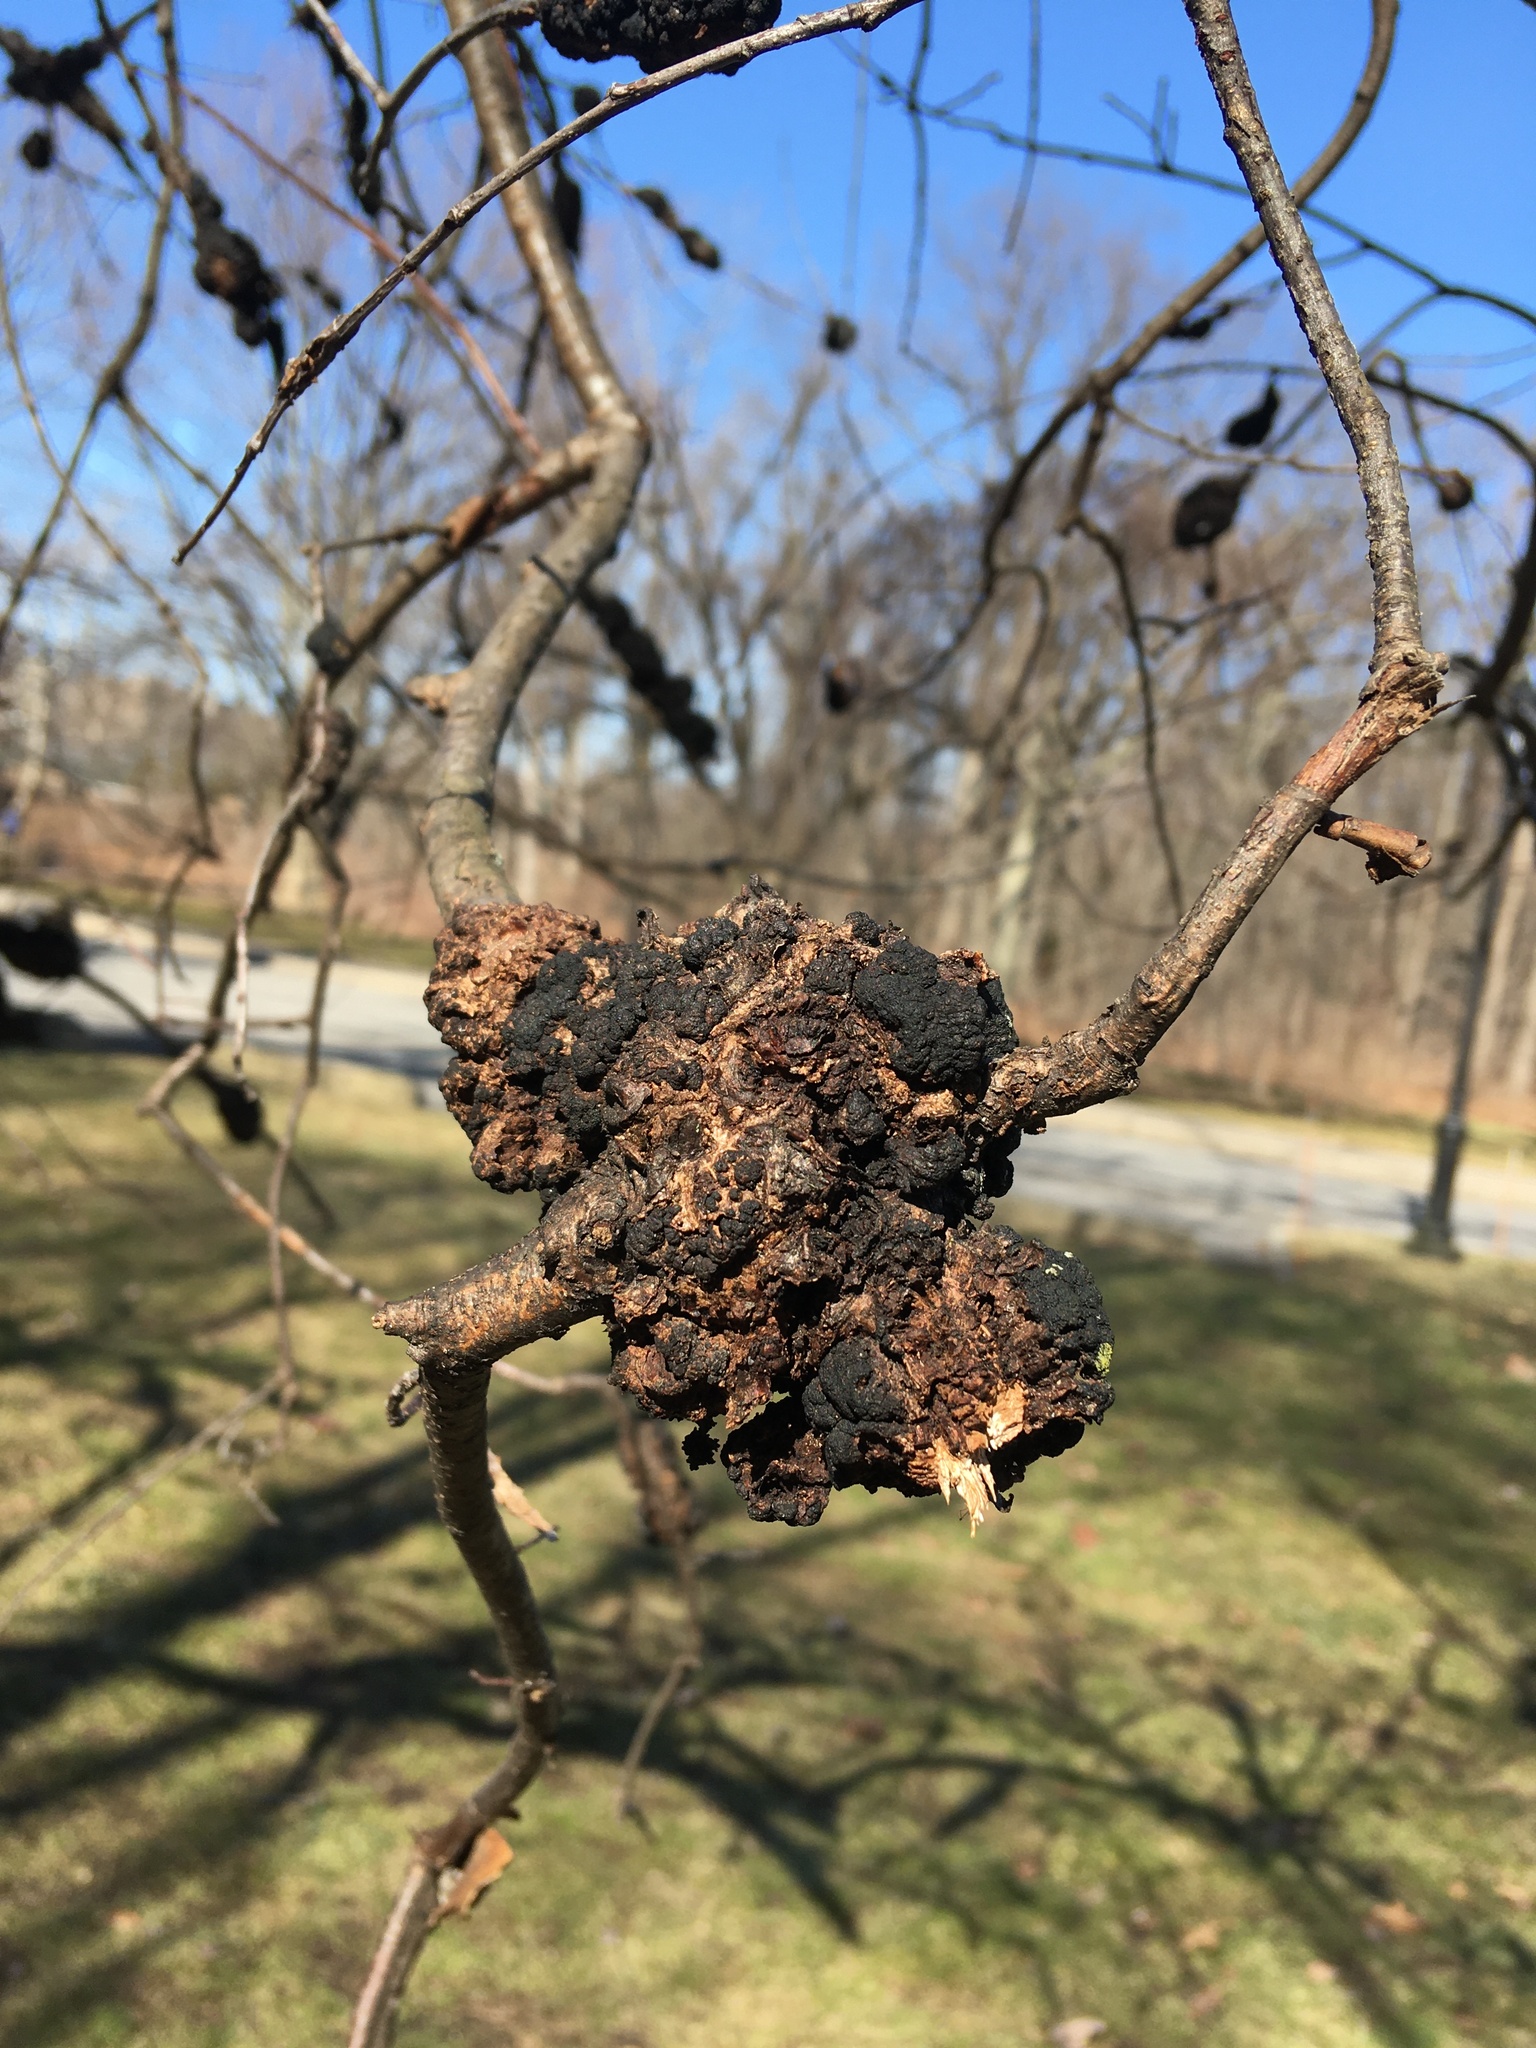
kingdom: Fungi
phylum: Ascomycota
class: Dothideomycetes
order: Venturiales
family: Venturiaceae
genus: Apiosporina
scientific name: Apiosporina morbosa
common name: Black knot
